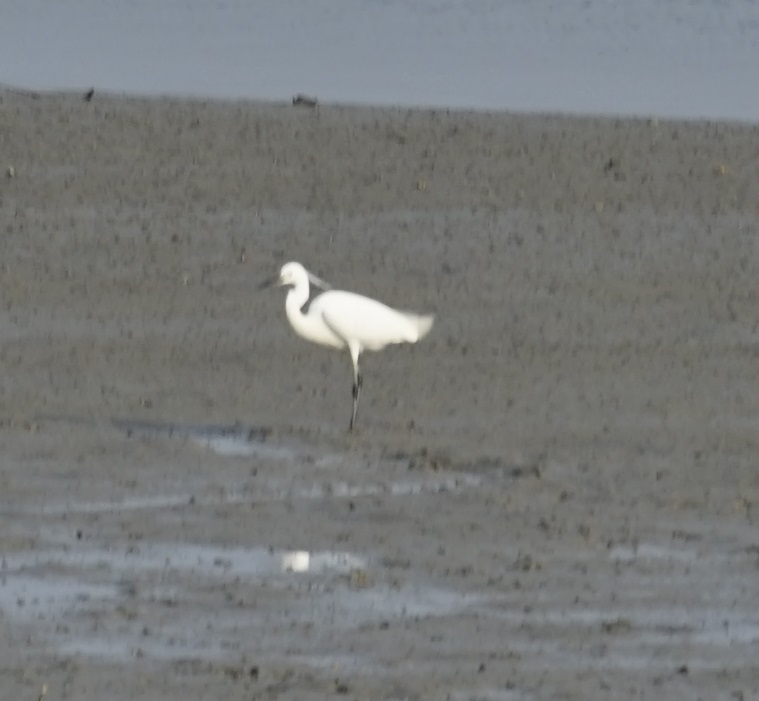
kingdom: Animalia
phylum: Chordata
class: Aves
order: Pelecaniformes
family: Ardeidae
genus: Egretta
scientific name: Egretta garzetta
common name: Little egret
